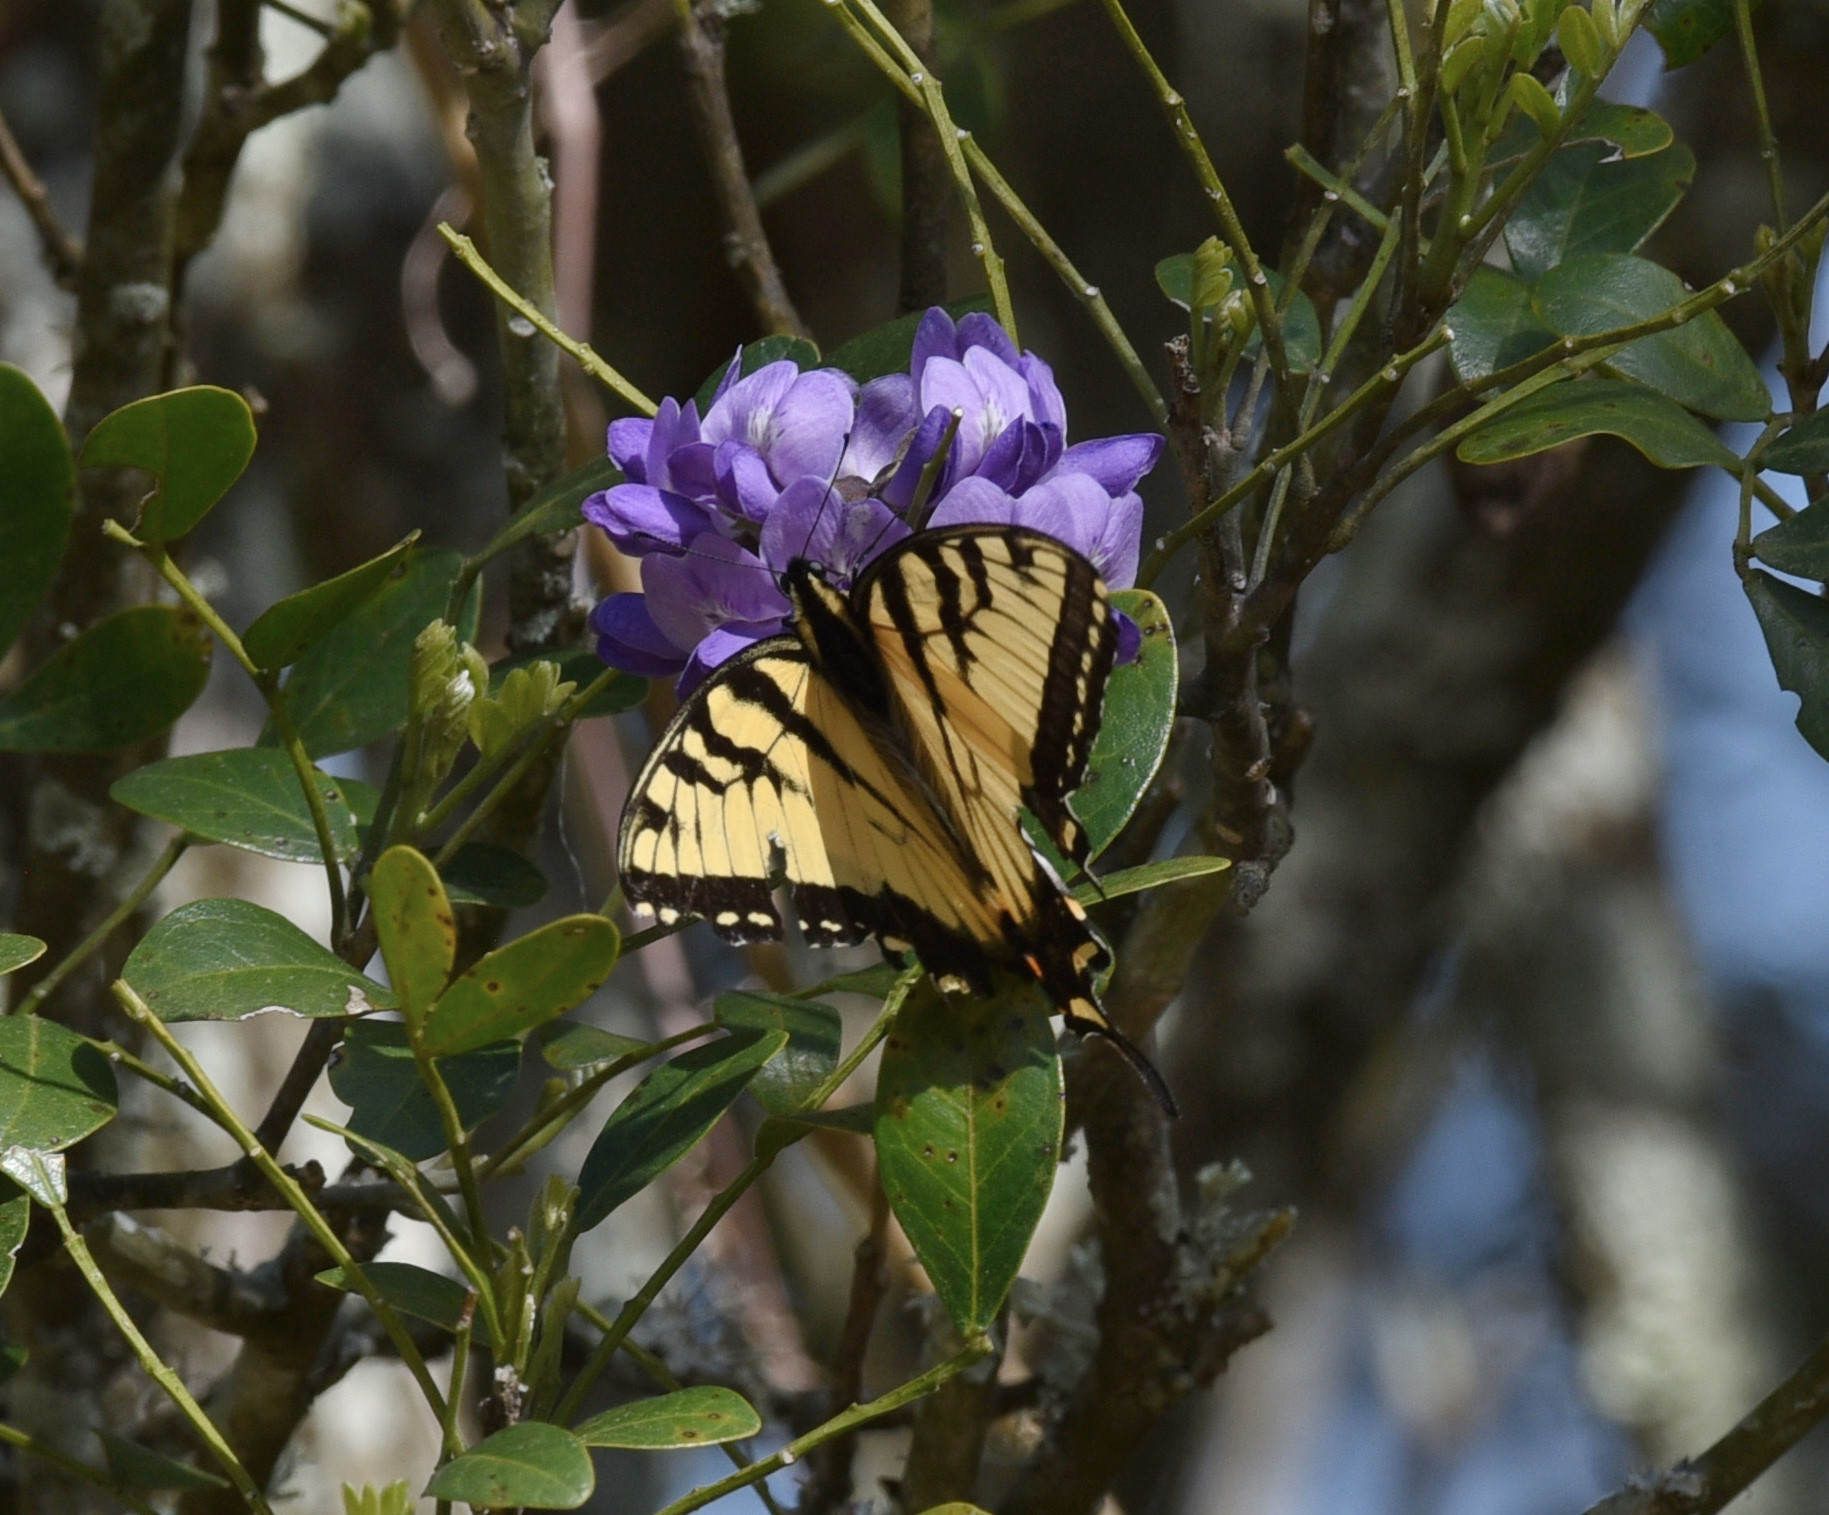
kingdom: Animalia
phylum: Arthropoda
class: Insecta
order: Lepidoptera
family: Papilionidae
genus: Papilio
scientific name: Papilio glaucus
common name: Tiger swallowtail
